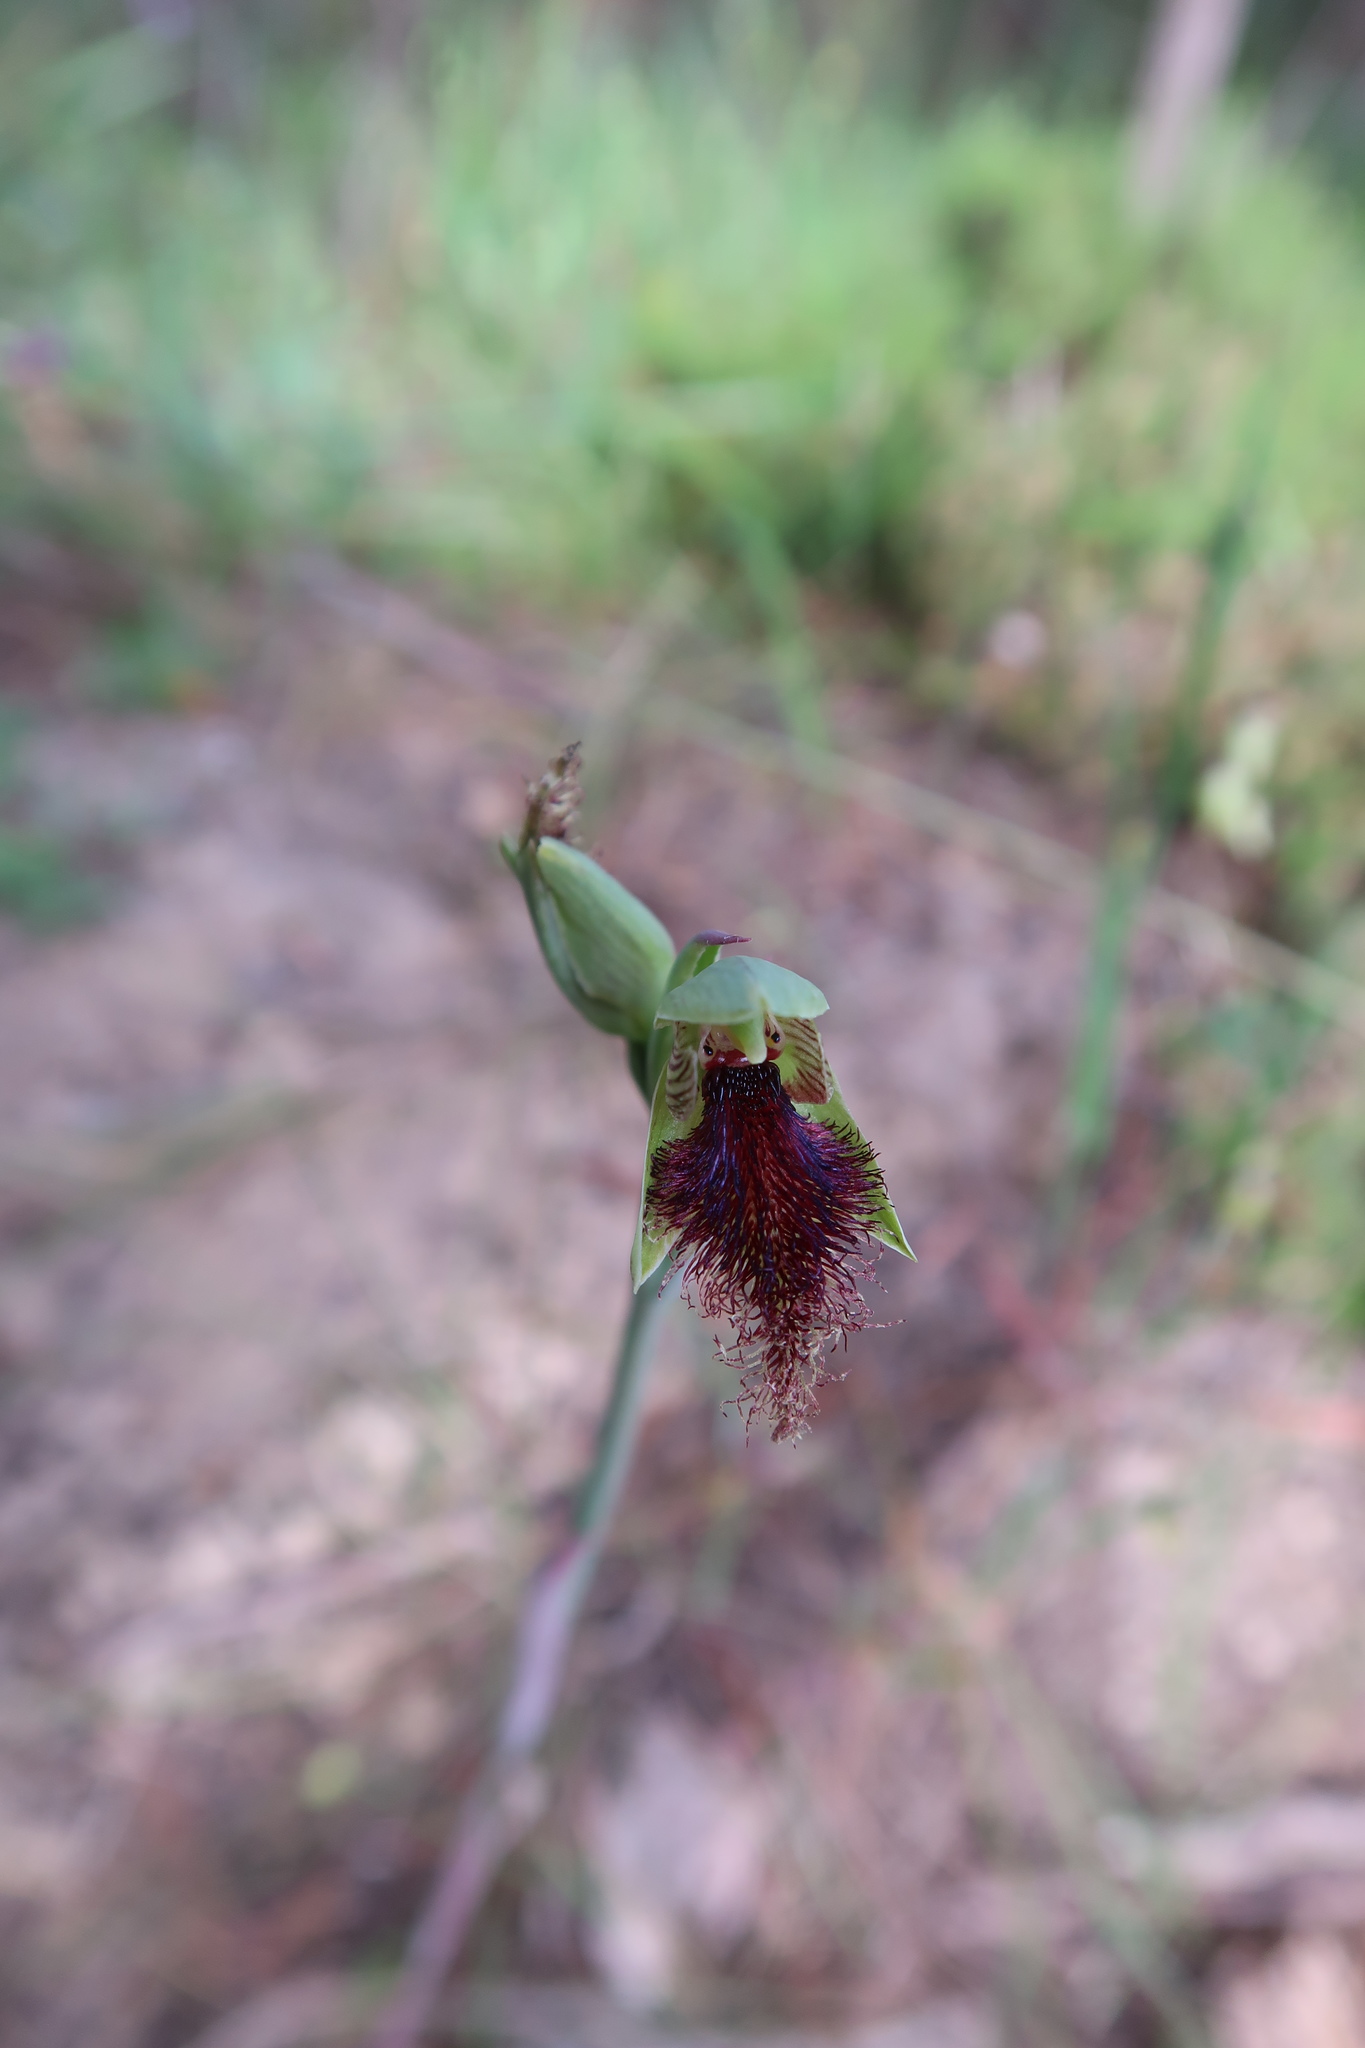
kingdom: Plantae
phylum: Tracheophyta
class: Liliopsida
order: Asparagales
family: Orchidaceae
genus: Calochilus
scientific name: Calochilus robertsonii
